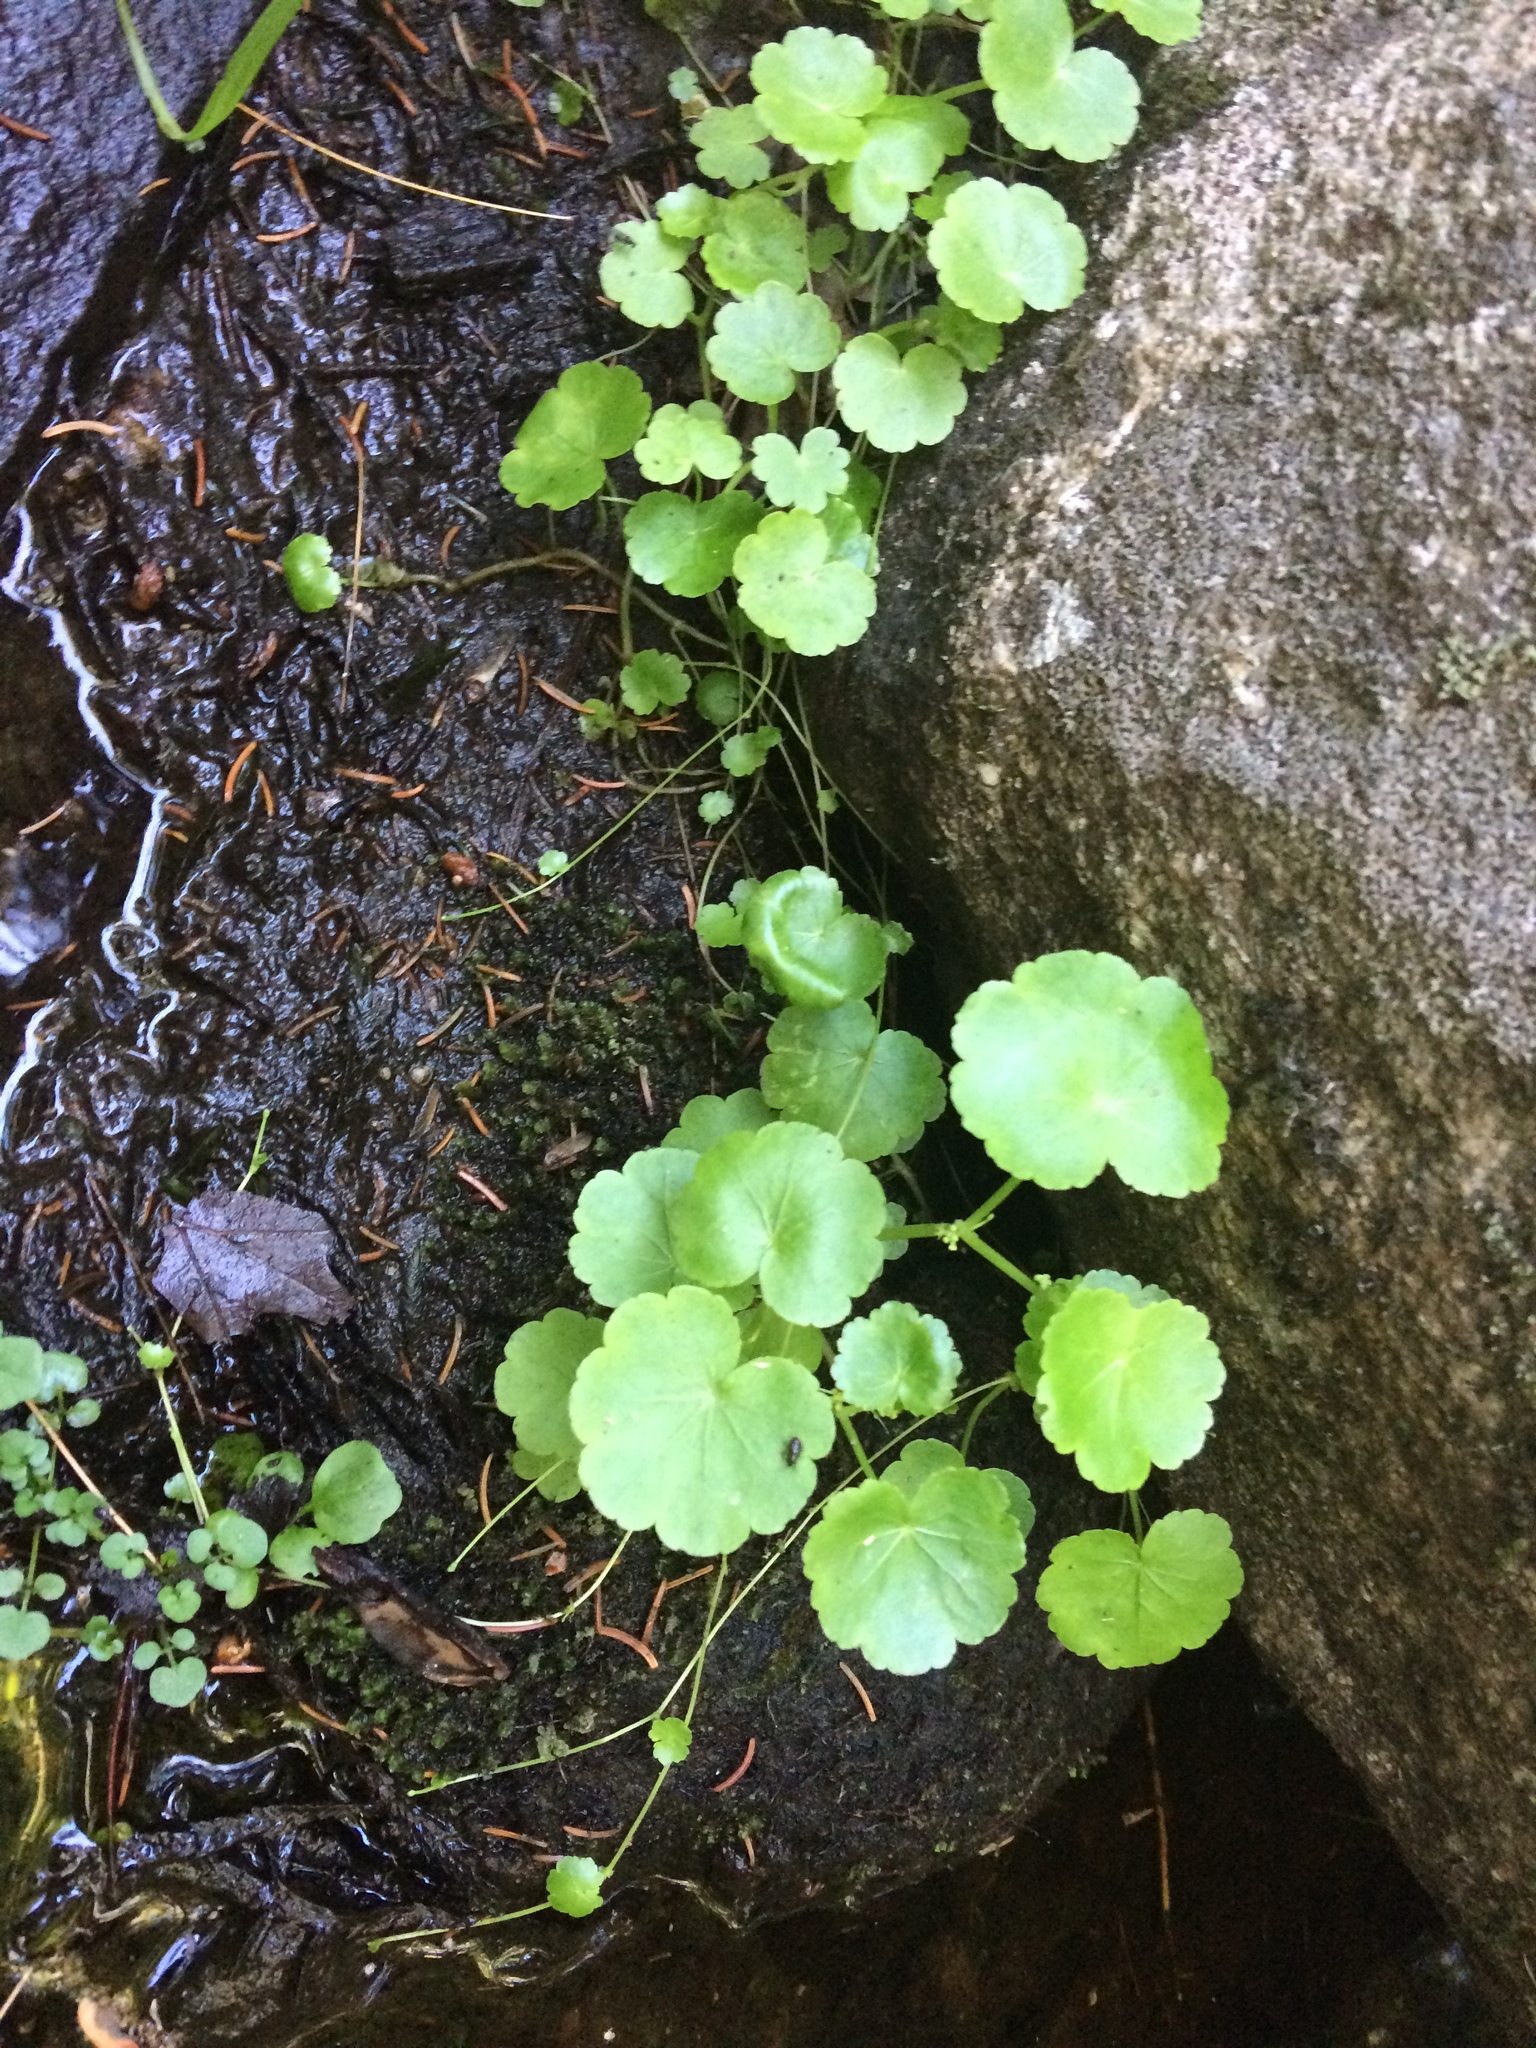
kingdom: Plantae
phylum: Tracheophyta
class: Magnoliopsida
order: Apiales
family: Araliaceae
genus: Hydrocotyle
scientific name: Hydrocotyle americana
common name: American water-pennywort
